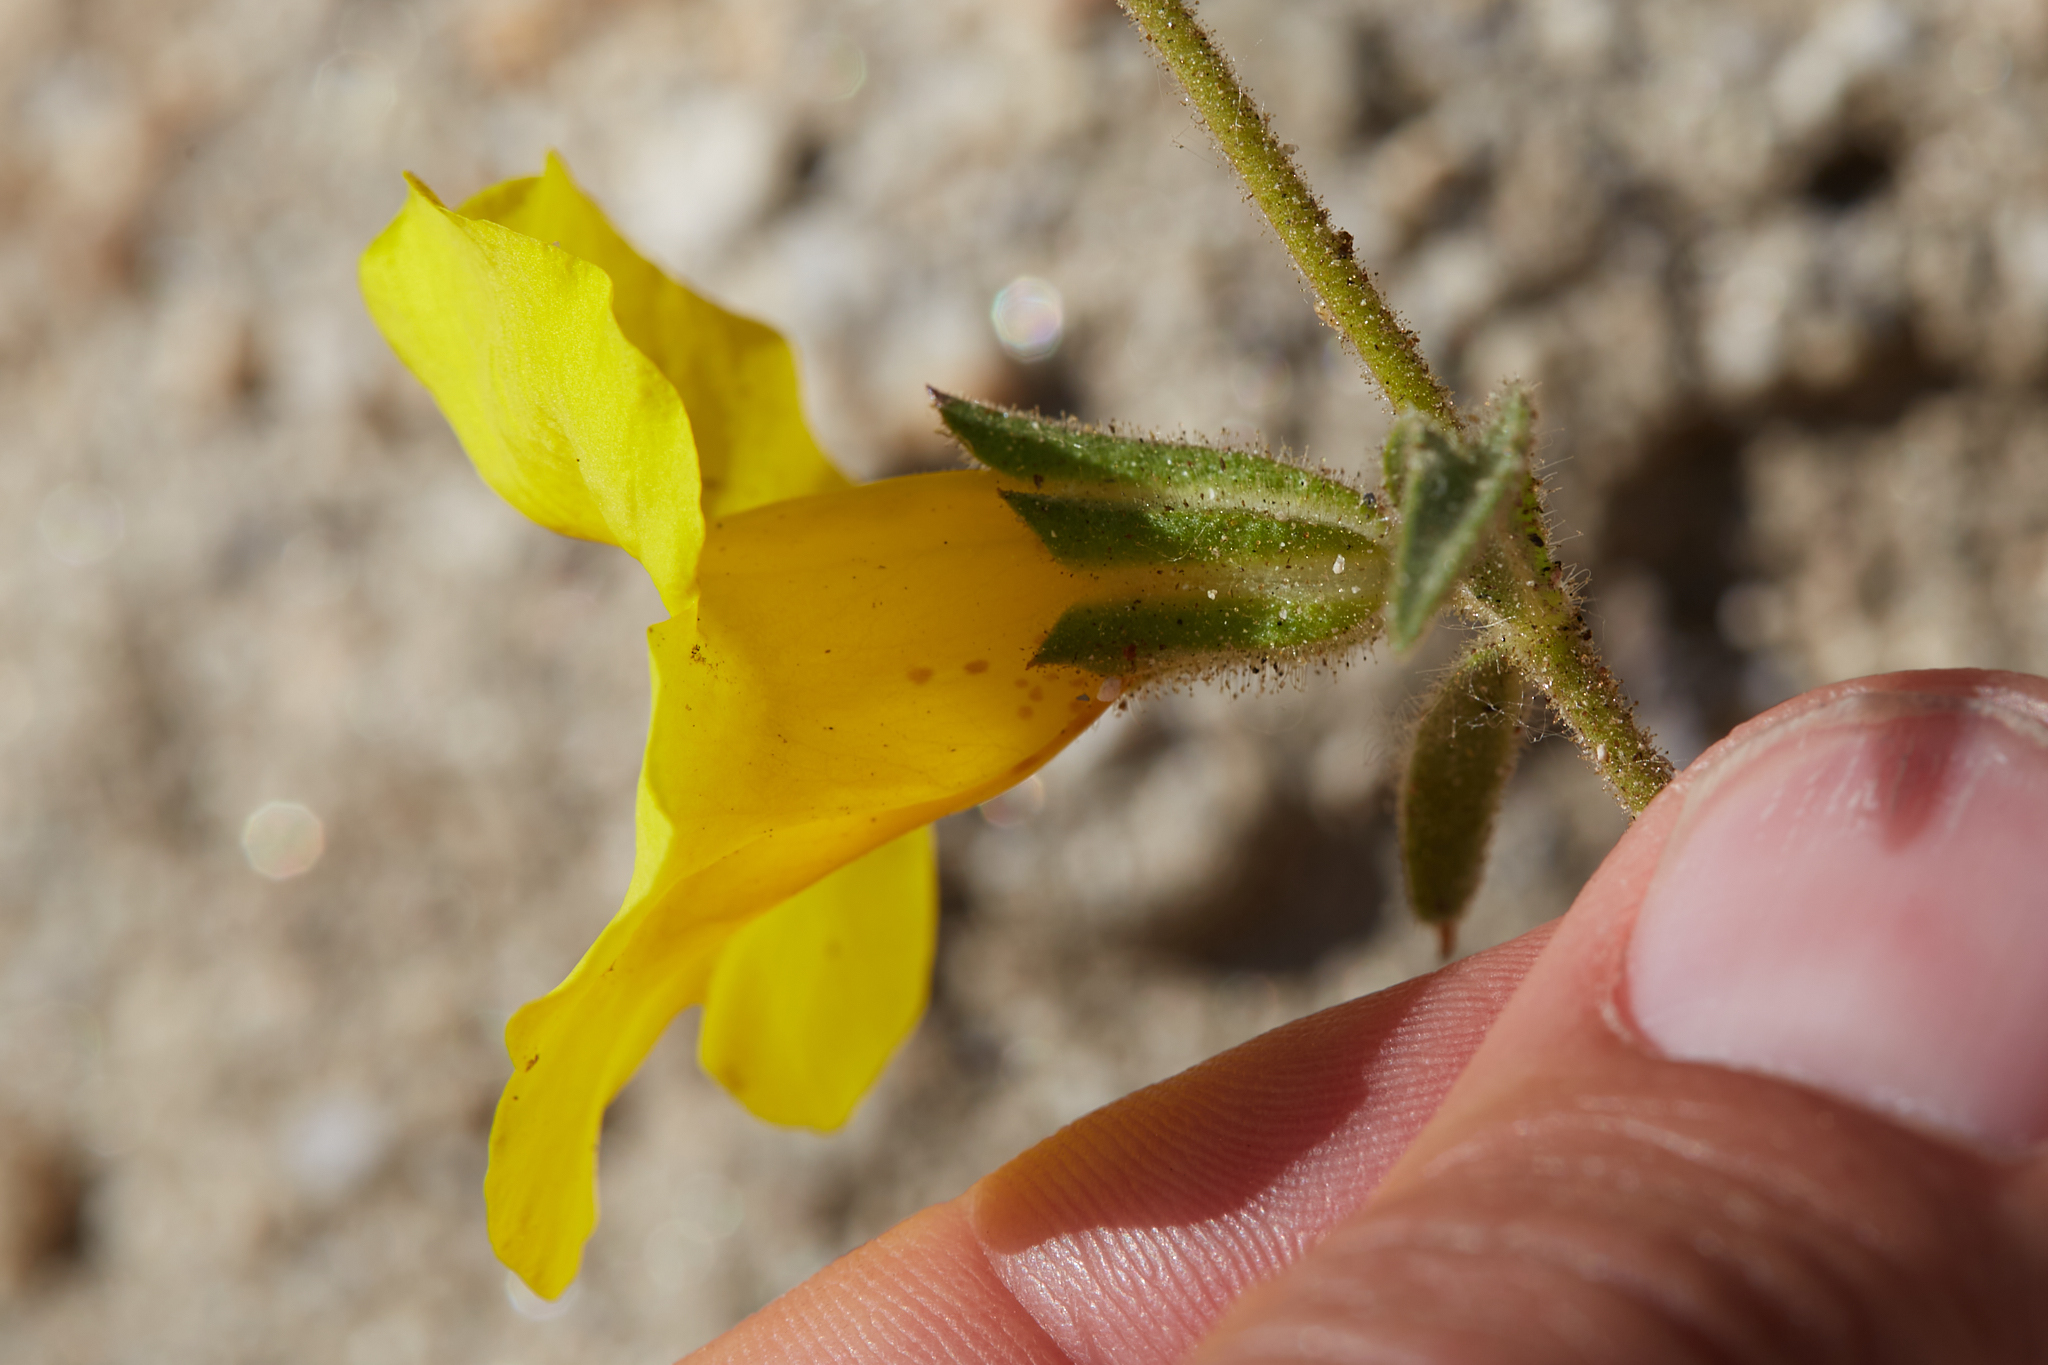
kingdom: Plantae
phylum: Tracheophyta
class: Magnoliopsida
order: Lamiales
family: Phrymaceae
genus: Diplacus
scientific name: Diplacus brevipes
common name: Wide-throat yellow monkey-flower
